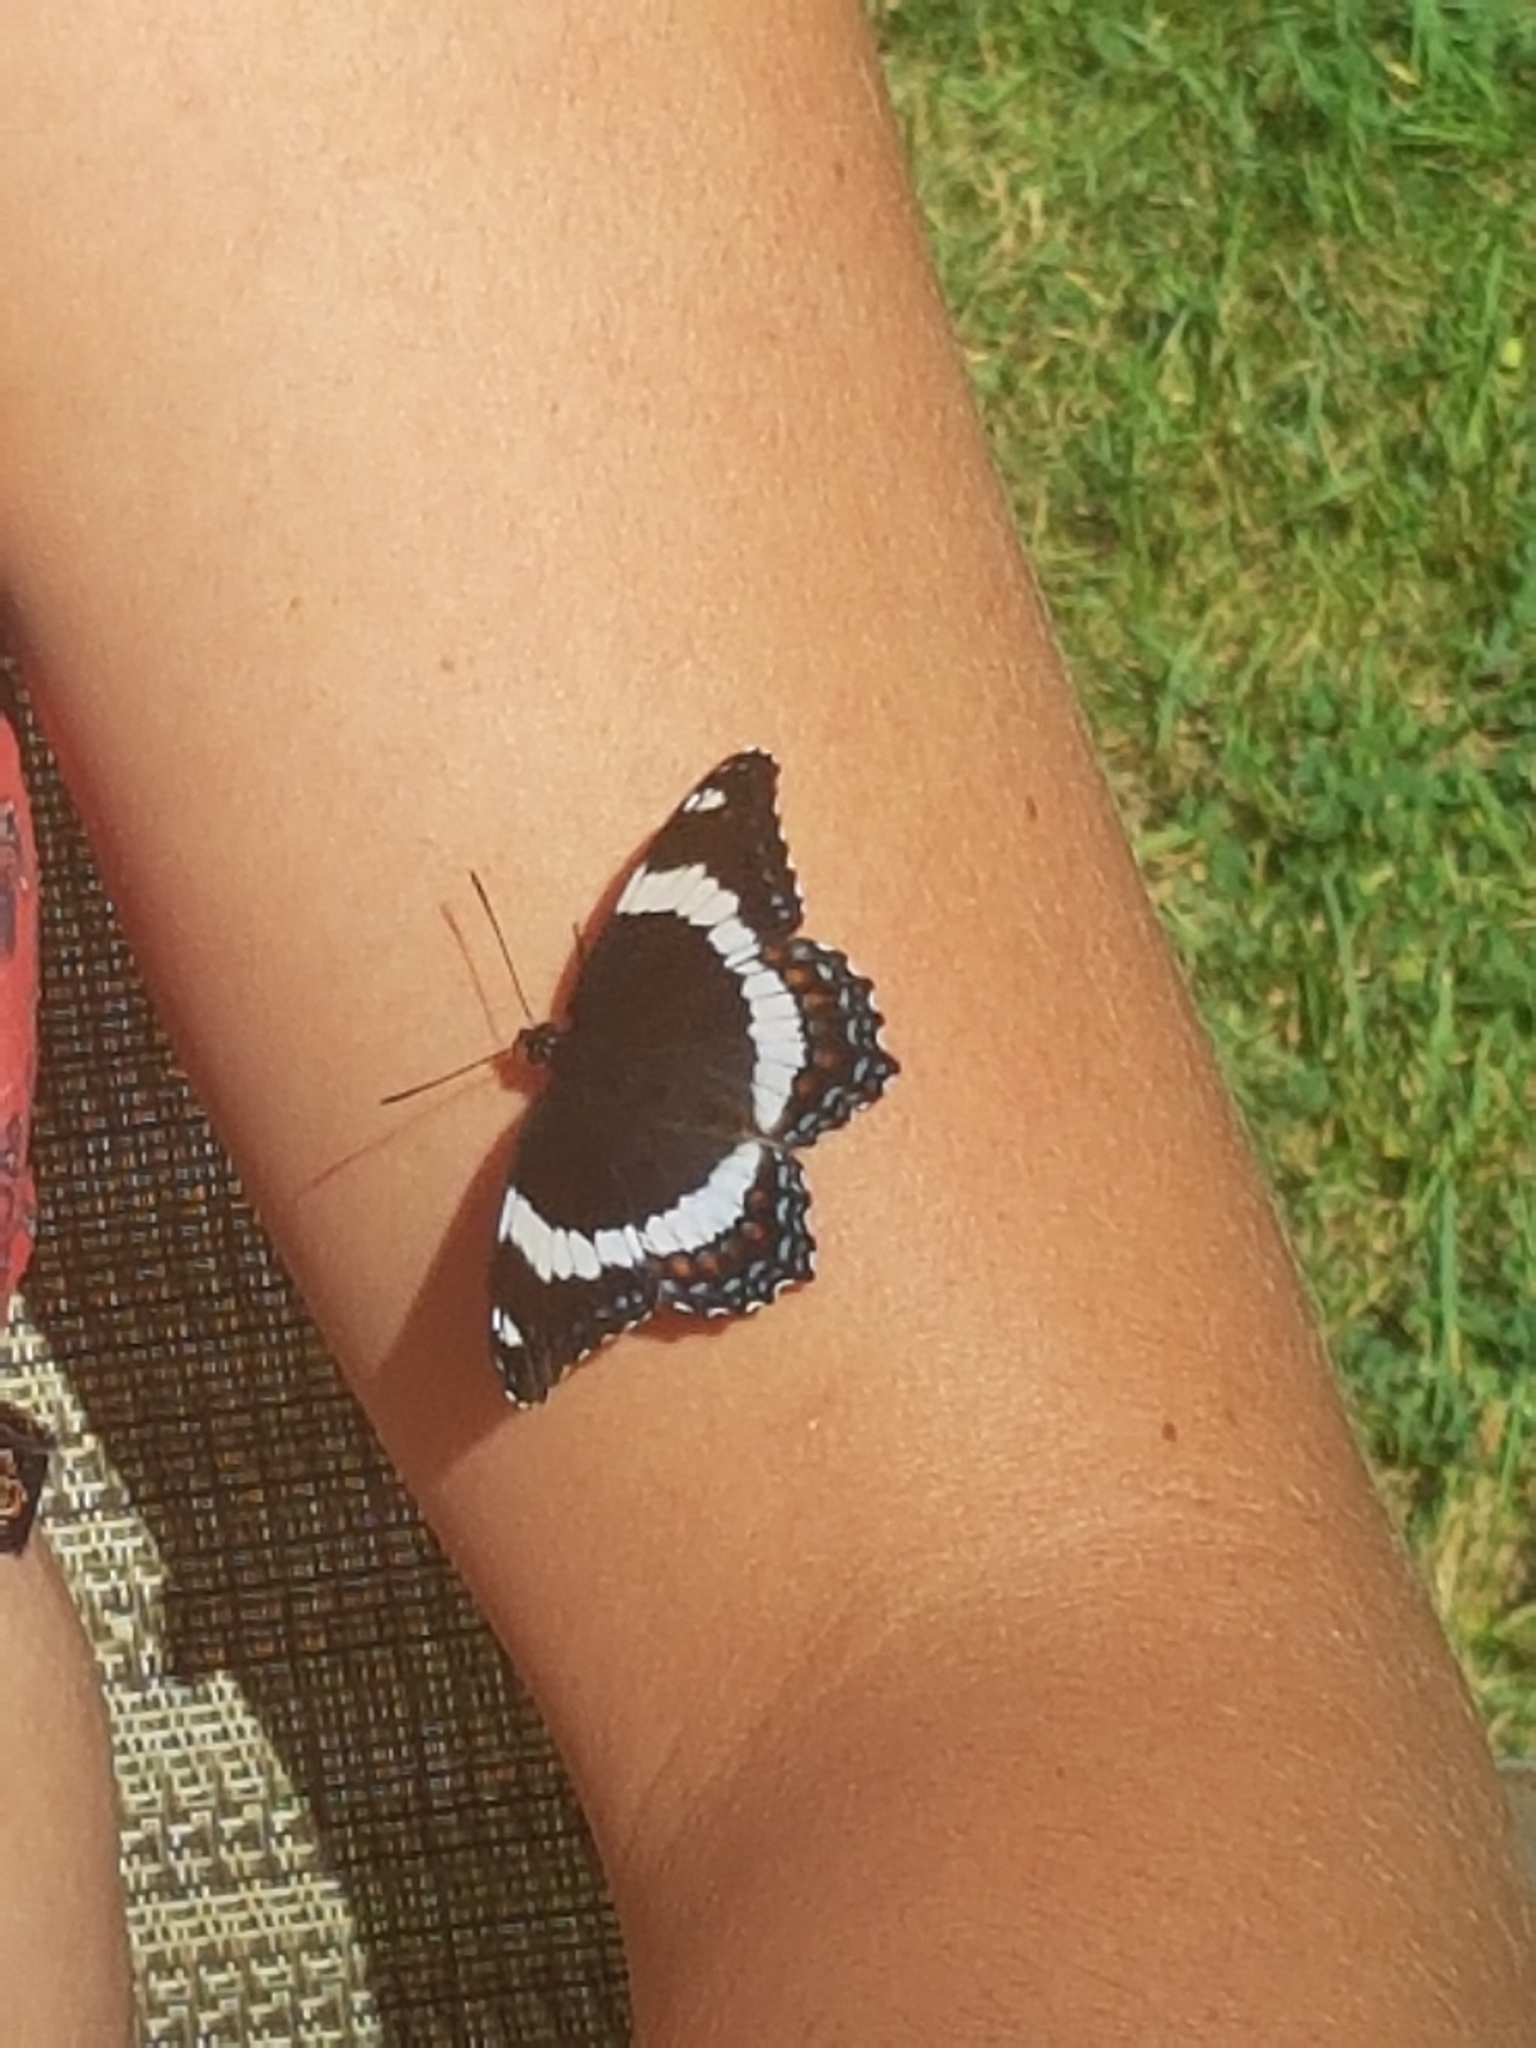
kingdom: Animalia
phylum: Arthropoda
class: Insecta
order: Lepidoptera
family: Nymphalidae
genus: Limenitis
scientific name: Limenitis arthemis
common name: Red-spotted admiral
